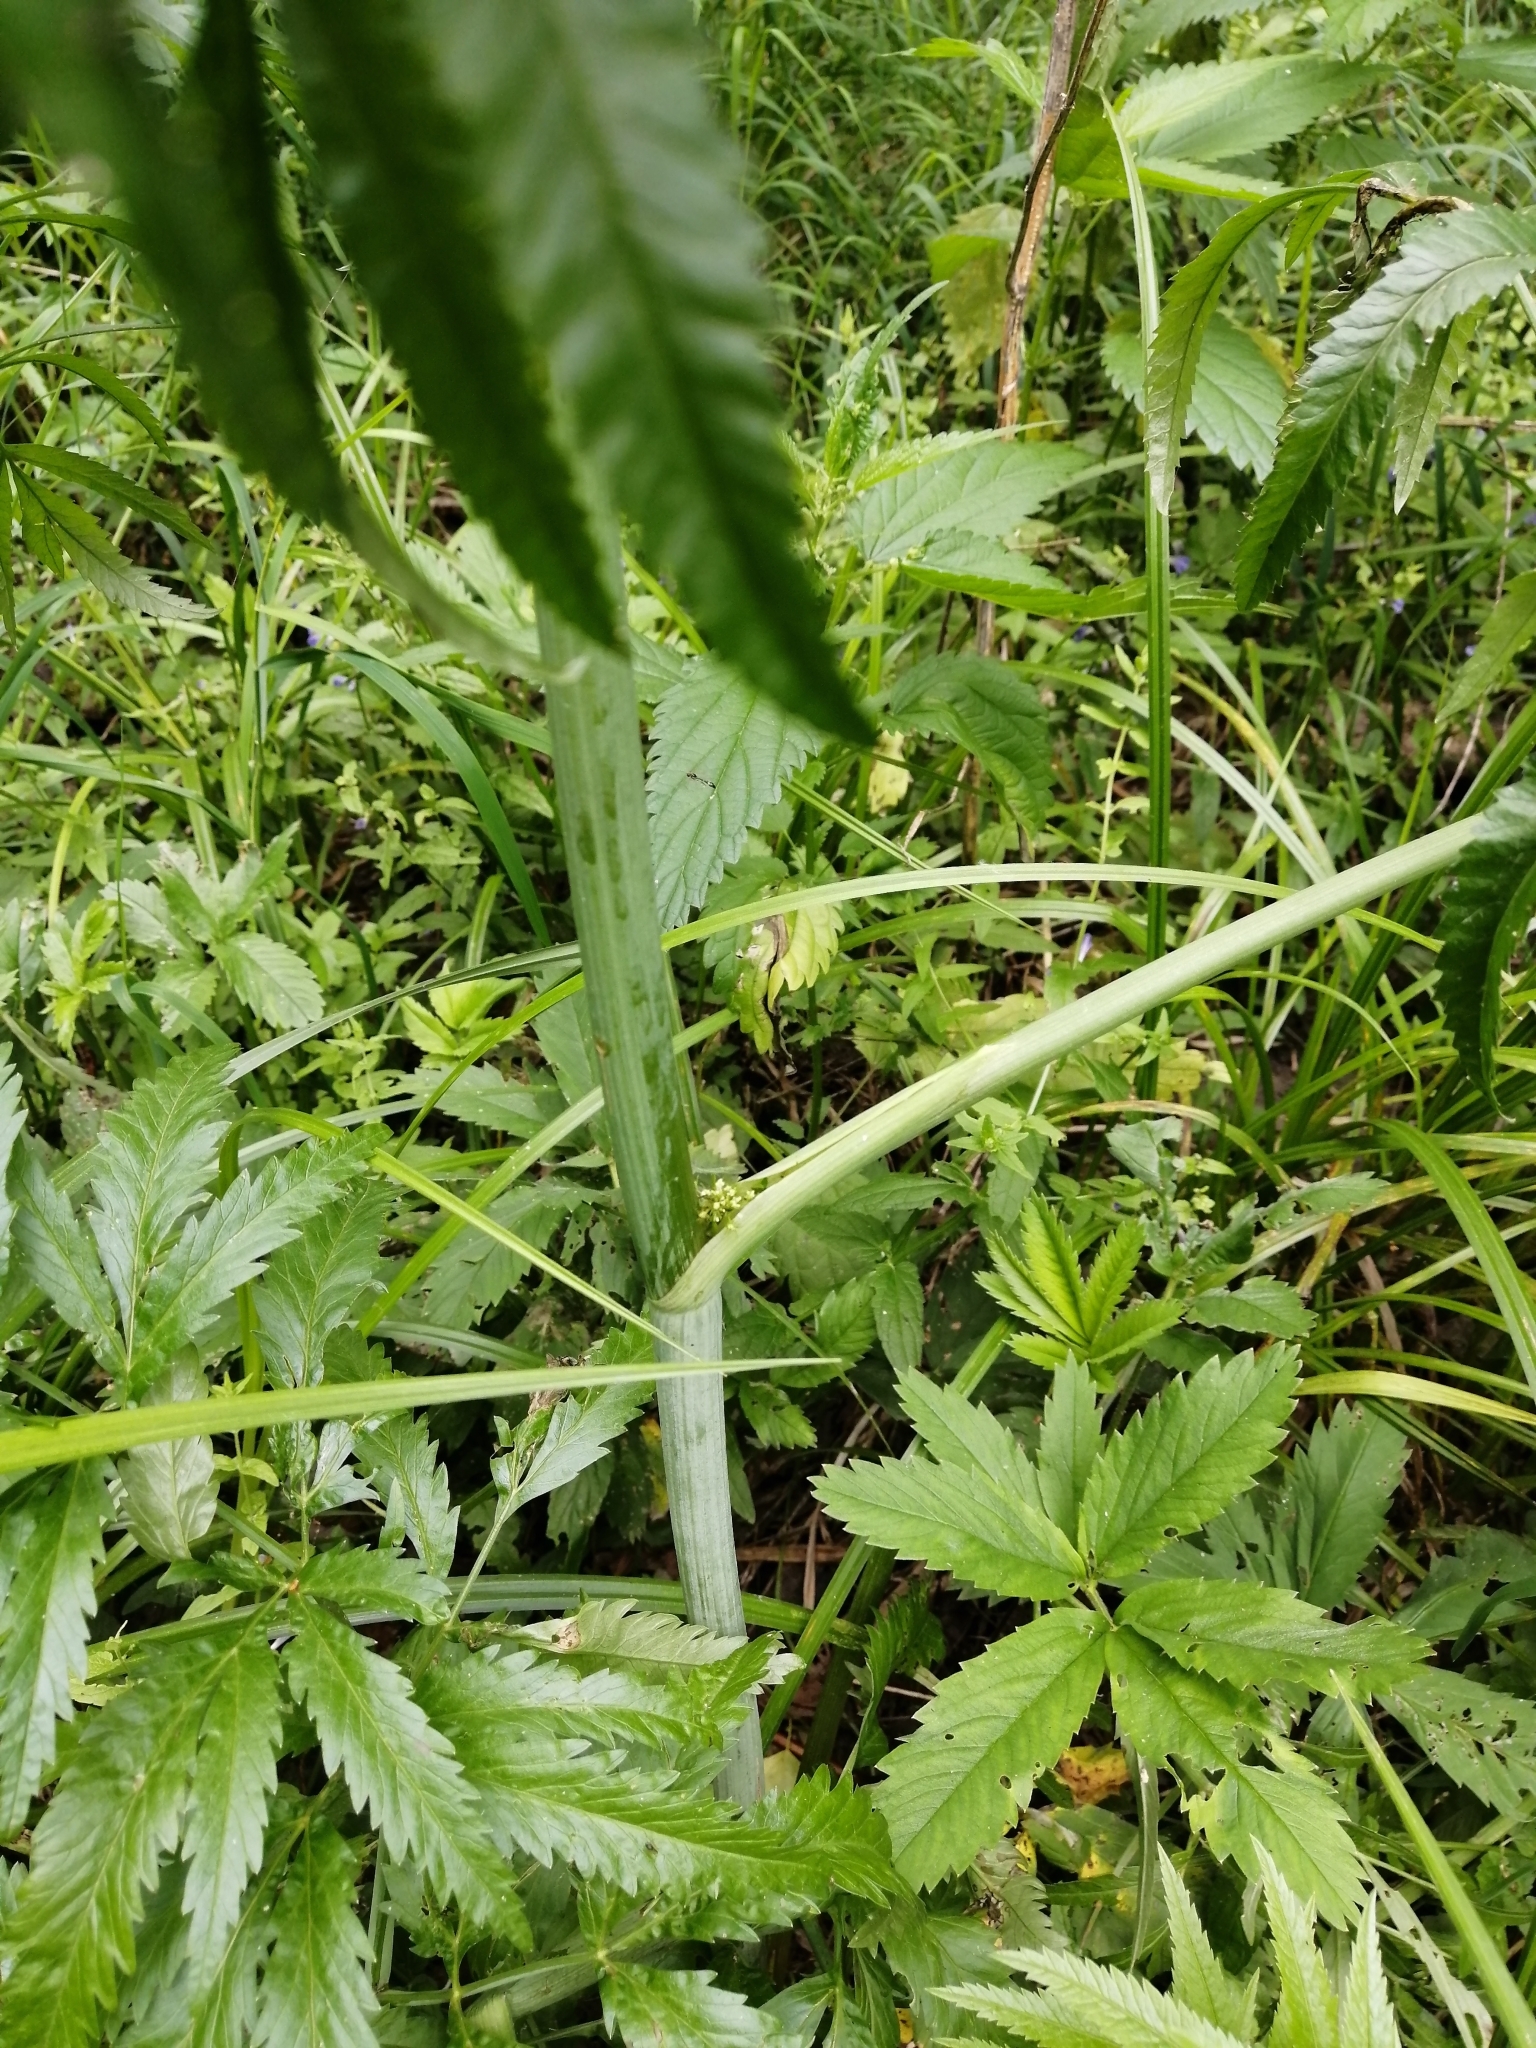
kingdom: Plantae
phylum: Tracheophyta
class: Magnoliopsida
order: Apiales
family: Apiaceae
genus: Cicuta
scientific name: Cicuta virosa
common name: Cowbane
